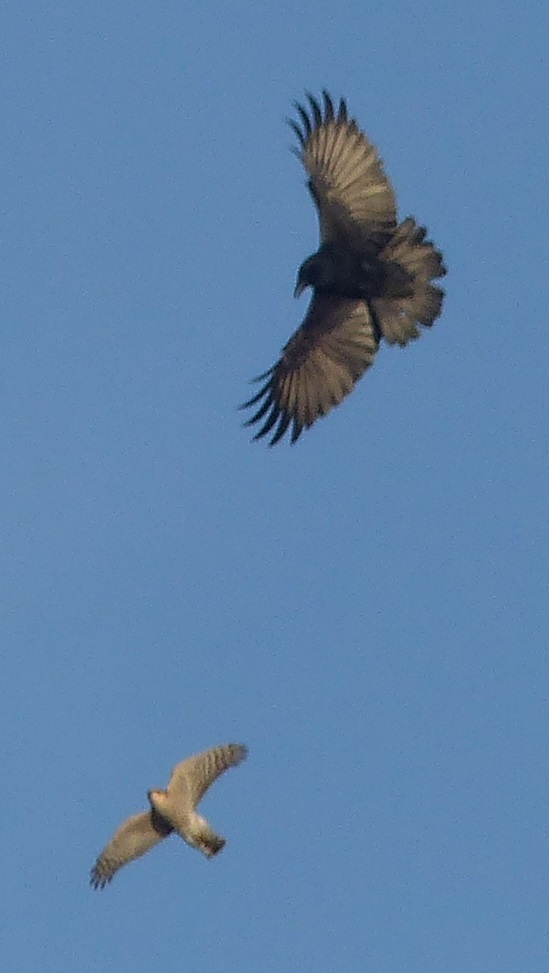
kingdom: Animalia
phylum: Chordata
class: Aves
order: Accipitriformes
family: Accipitridae
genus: Accipiter
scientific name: Accipiter nisus
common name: Eurasian sparrowhawk
